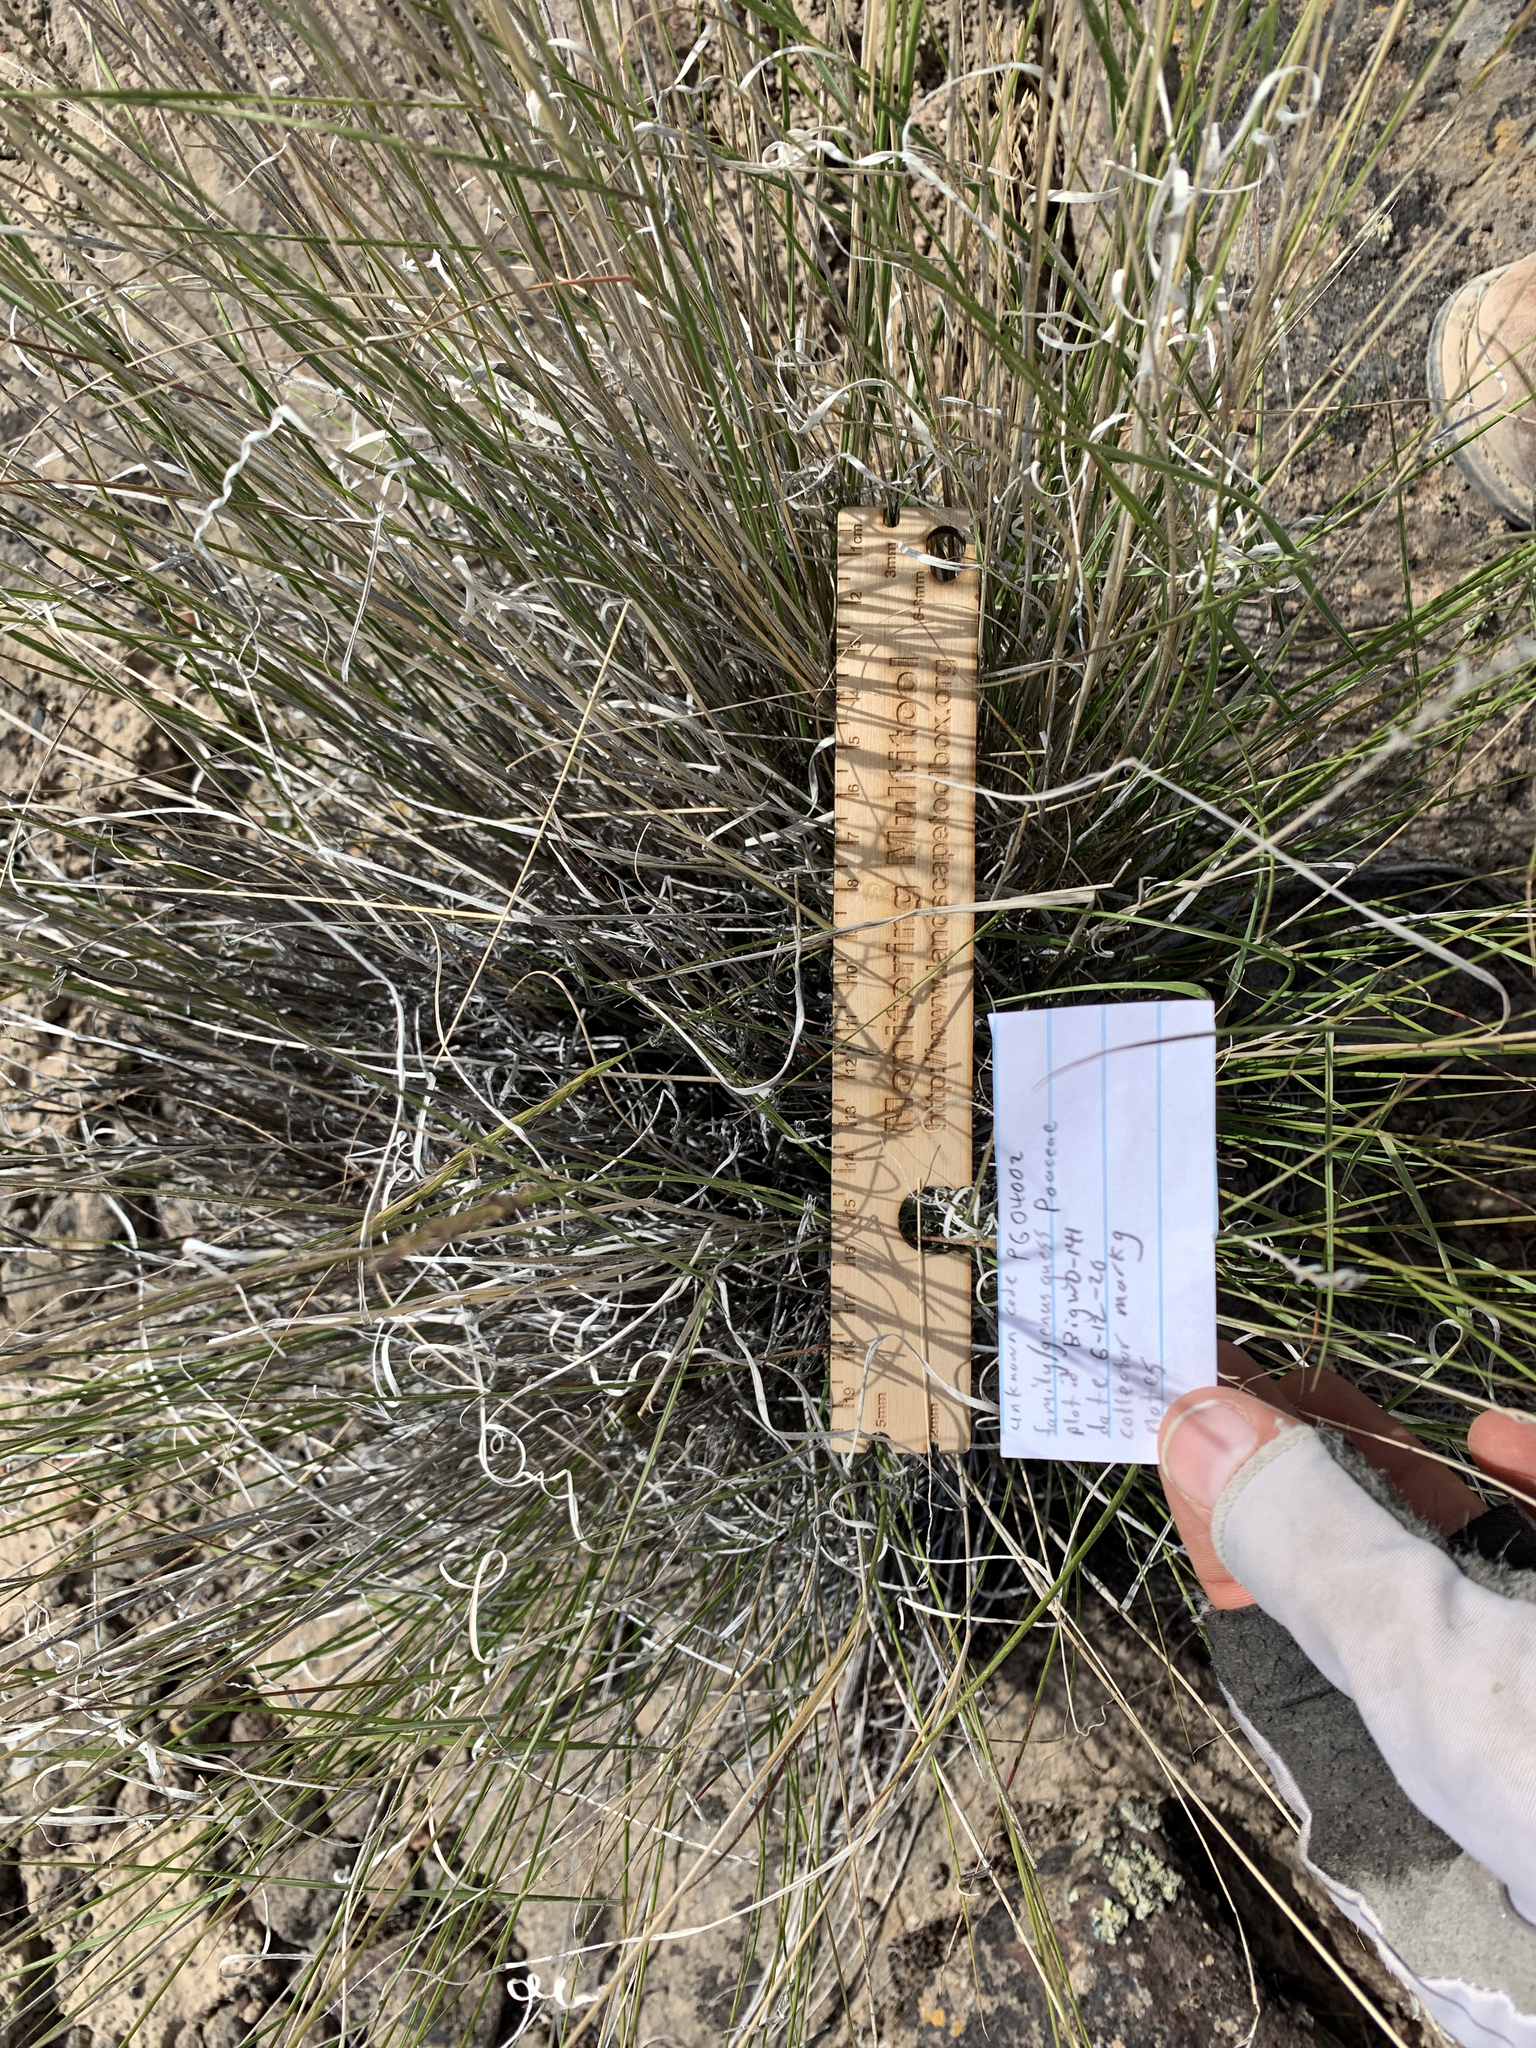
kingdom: Plantae
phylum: Tracheophyta
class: Liliopsida
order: Poales
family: Poaceae
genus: Pseudoroegneria
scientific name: Pseudoroegneria spicata
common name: Bluebunch wheatgrass
